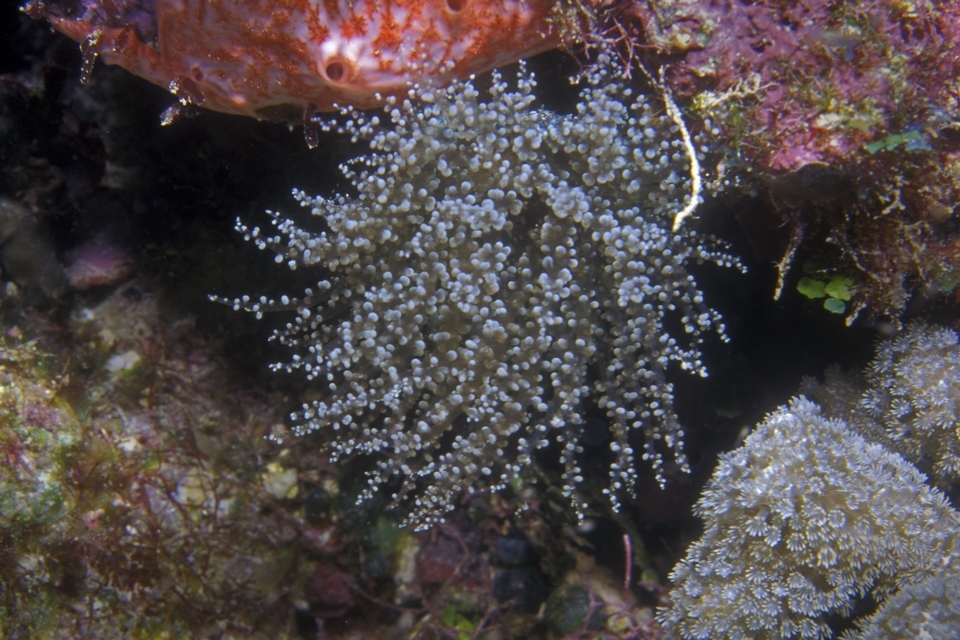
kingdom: Animalia
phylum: Cnidaria
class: Anthozoa
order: Actiniaria
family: Aiptasiidae
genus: Laviactis
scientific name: Laviactis lucida
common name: Atlantic beaded anemone
